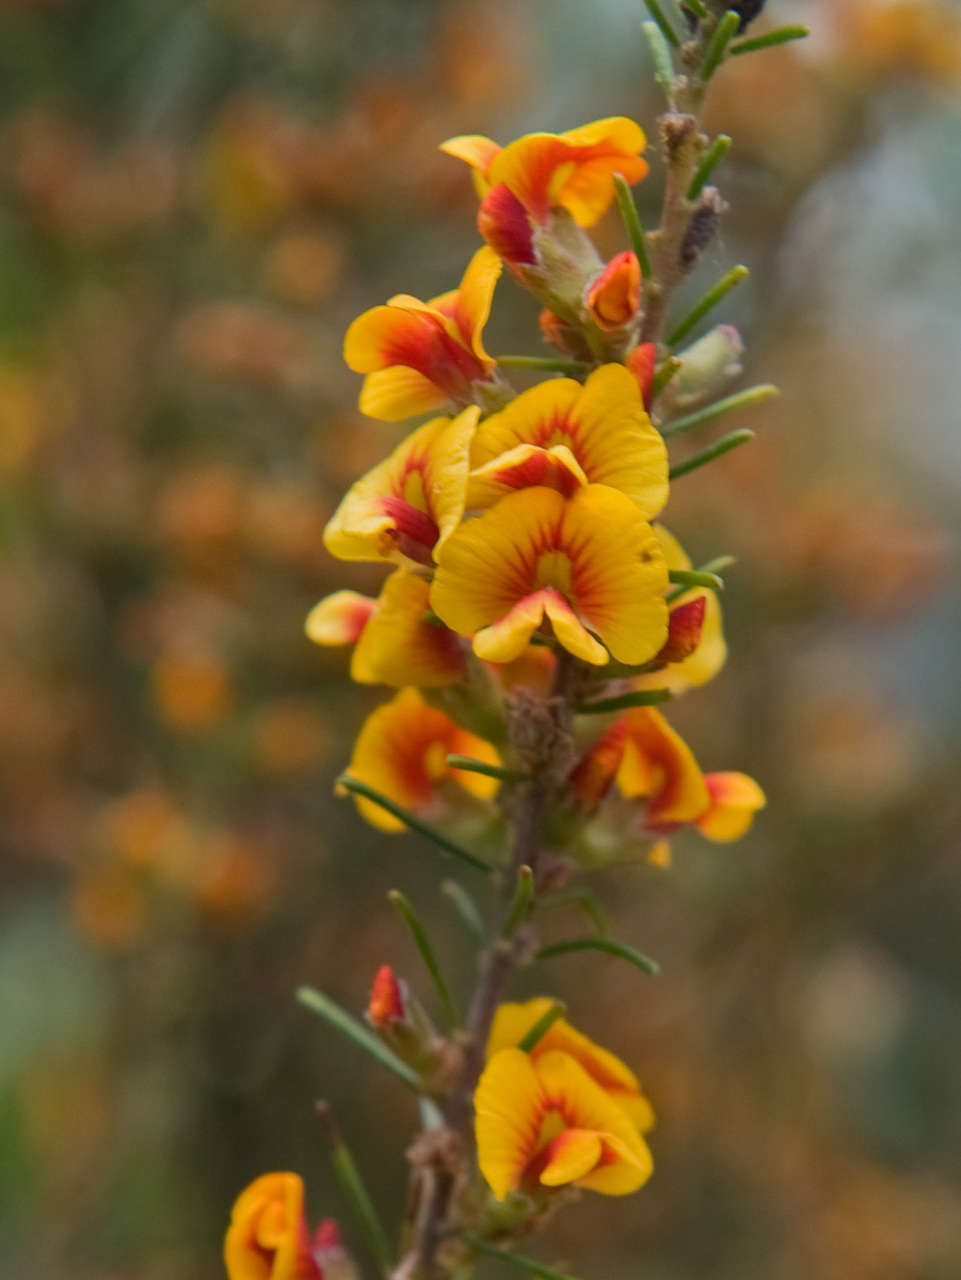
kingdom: Plantae
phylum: Tracheophyta
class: Magnoliopsida
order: Fabales
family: Fabaceae
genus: Dillwynia
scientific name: Dillwynia cinerascens
